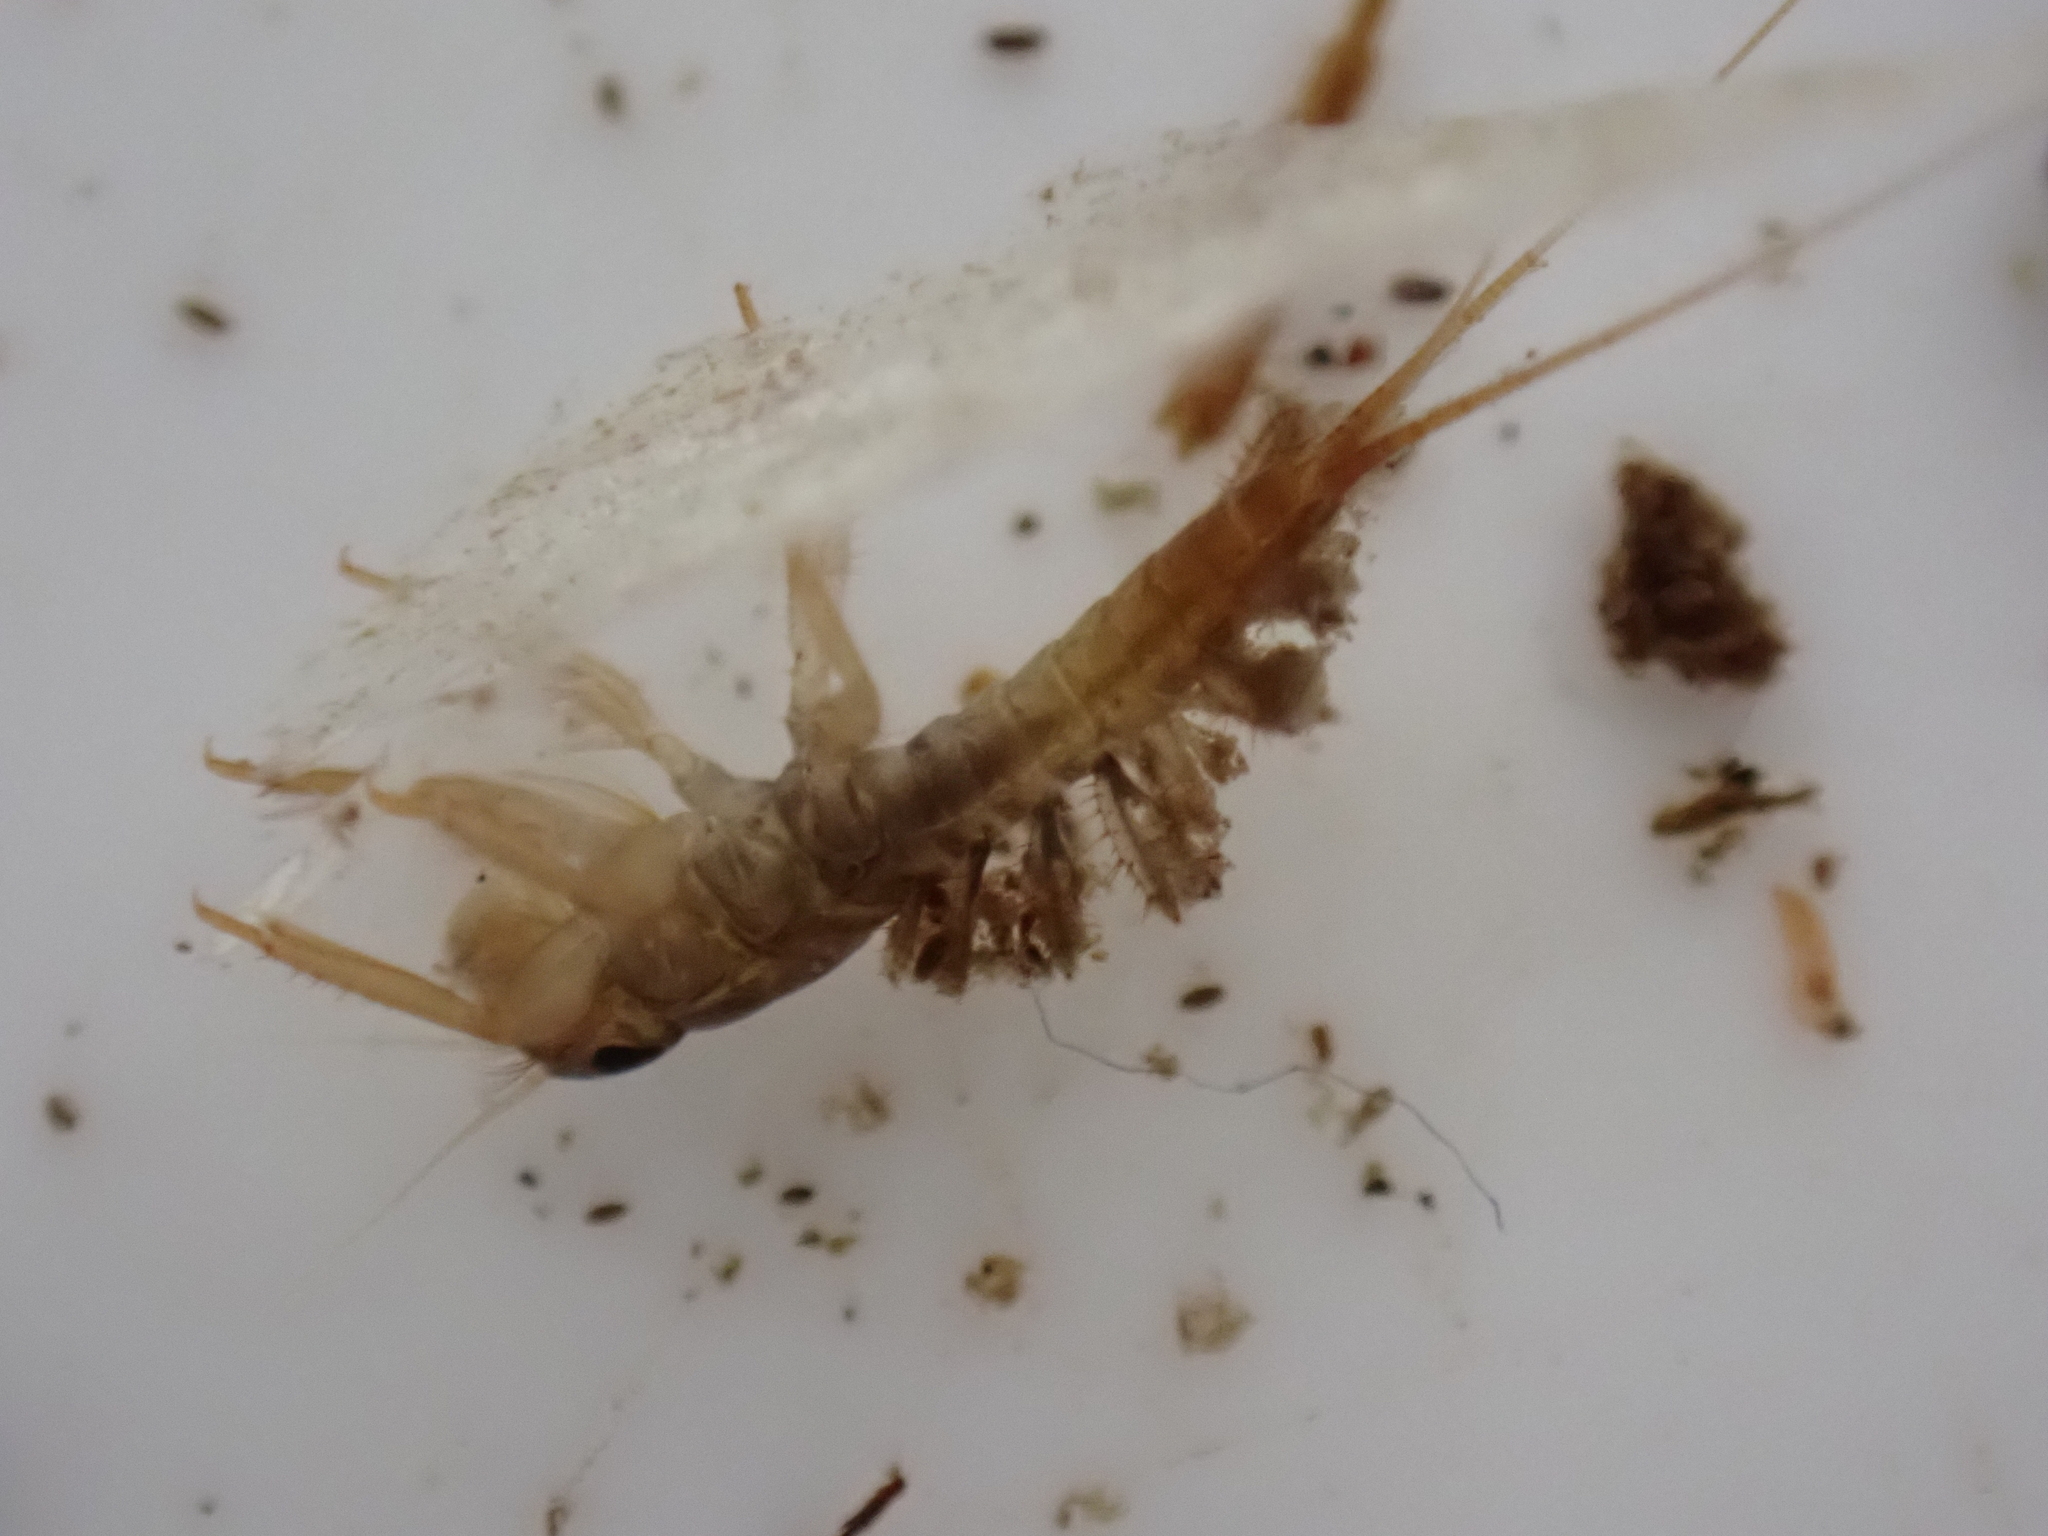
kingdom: Animalia
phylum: Arthropoda
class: Insecta
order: Ephemeroptera
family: Coloburiscidae
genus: Coloburiscus
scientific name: Coloburiscus humeralis
